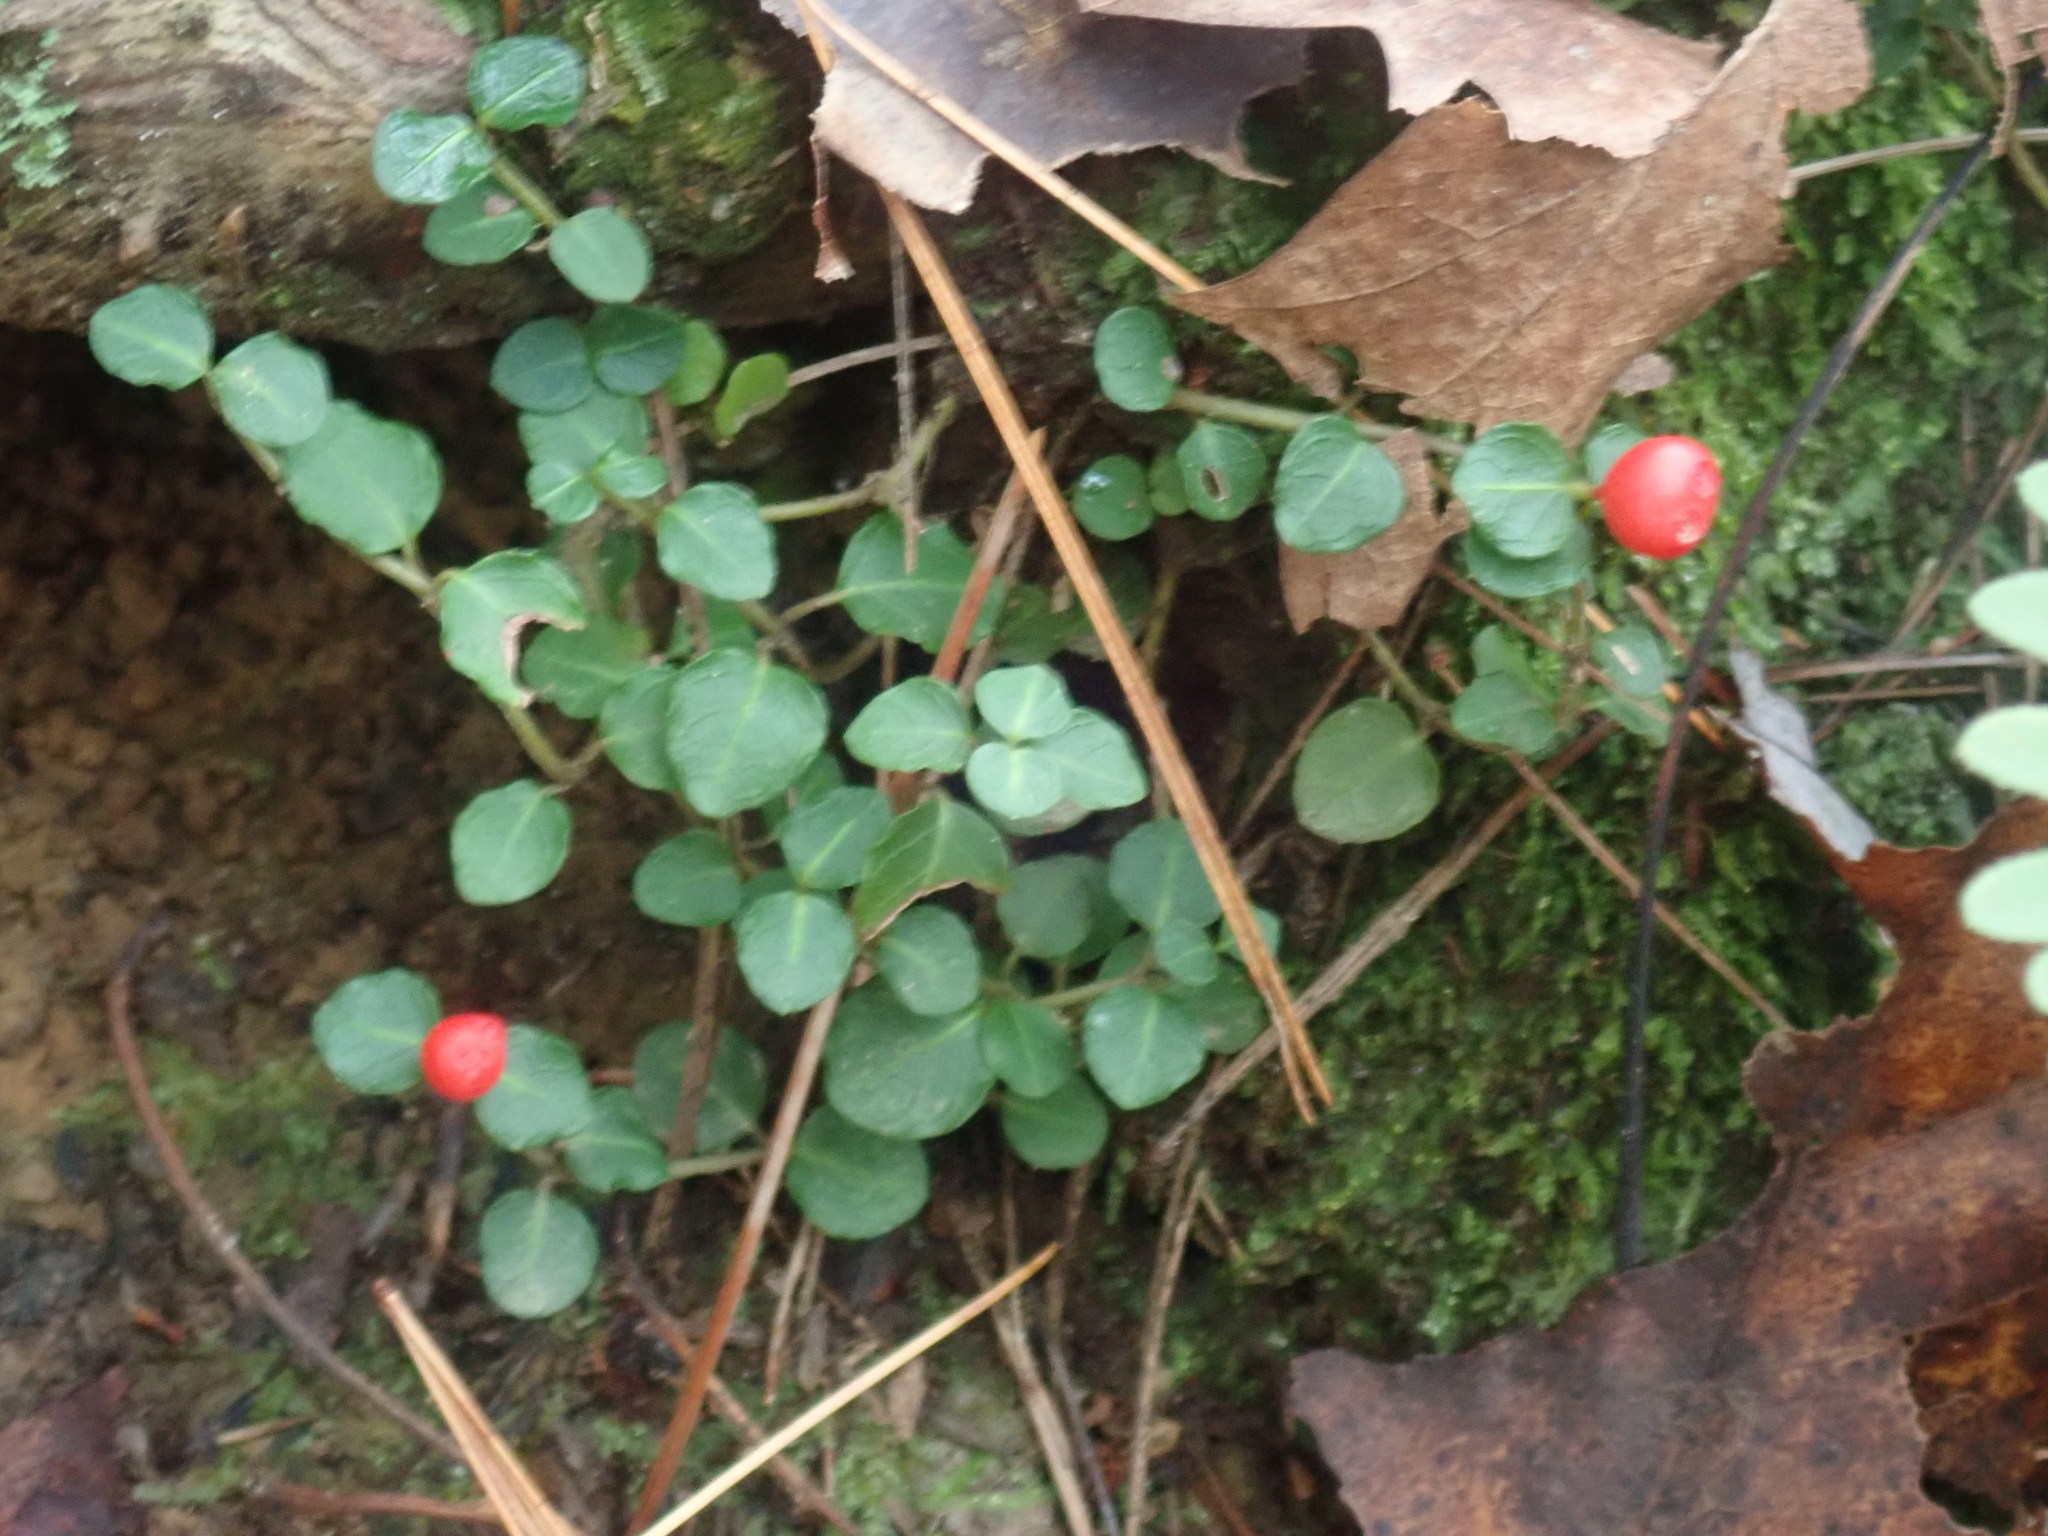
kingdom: Plantae
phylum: Tracheophyta
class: Magnoliopsida
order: Gentianales
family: Rubiaceae
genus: Mitchella
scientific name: Mitchella repens
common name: Partridge-berry
